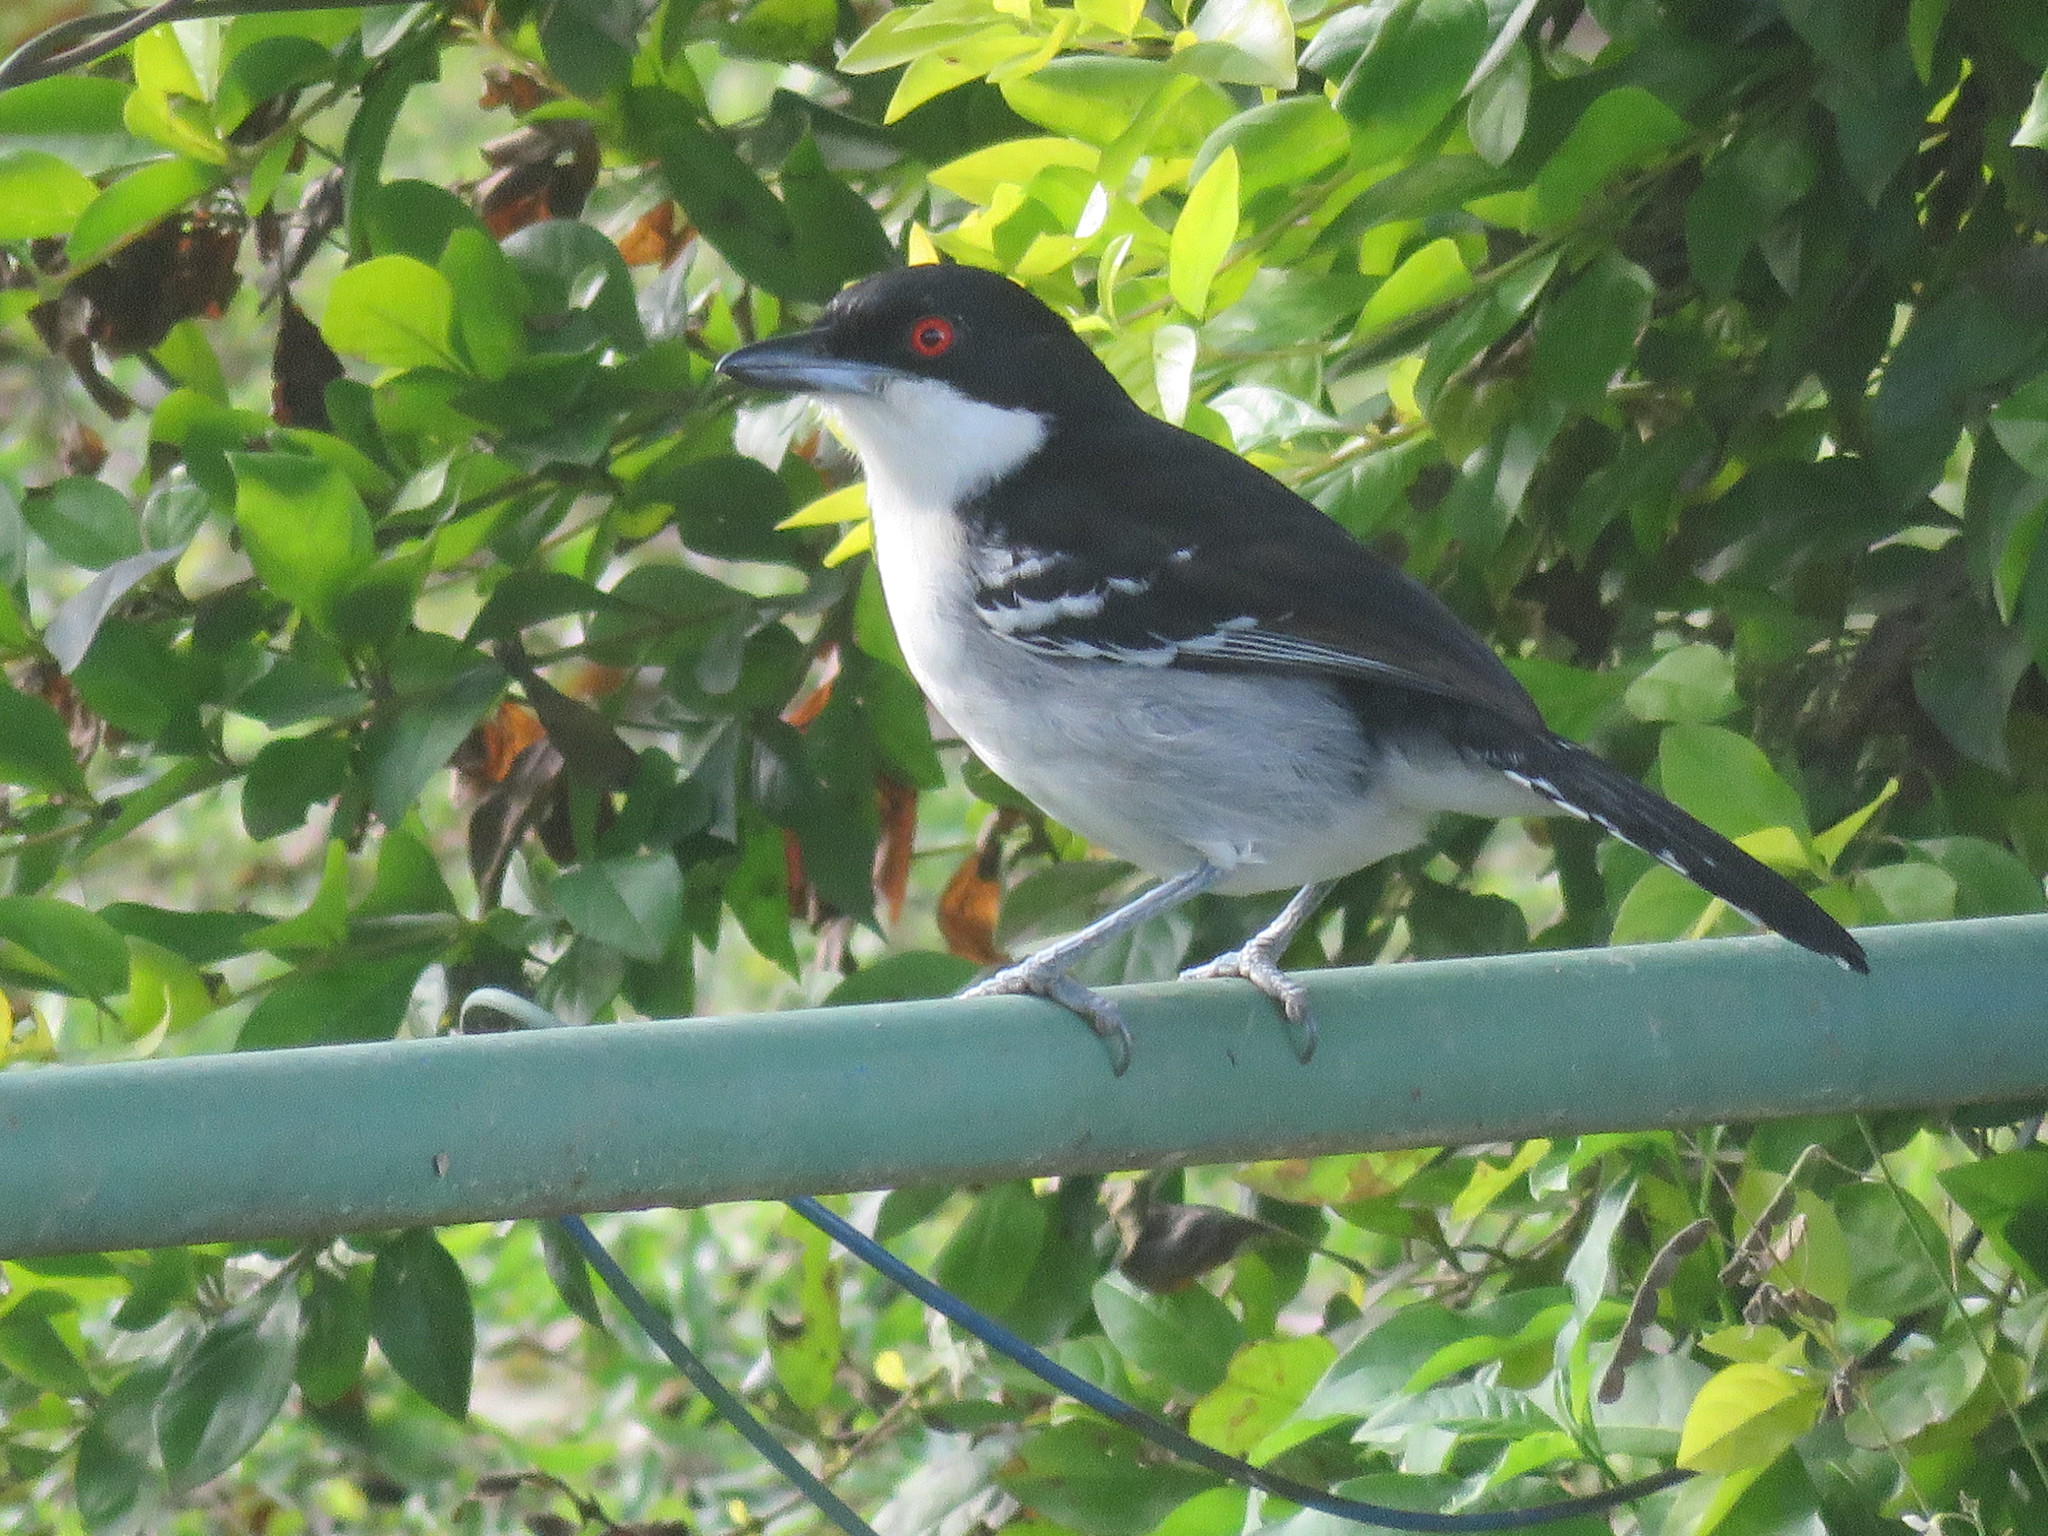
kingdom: Animalia
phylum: Chordata
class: Aves
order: Passeriformes
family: Thamnophilidae
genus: Taraba
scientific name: Taraba major
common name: Great antshrike
